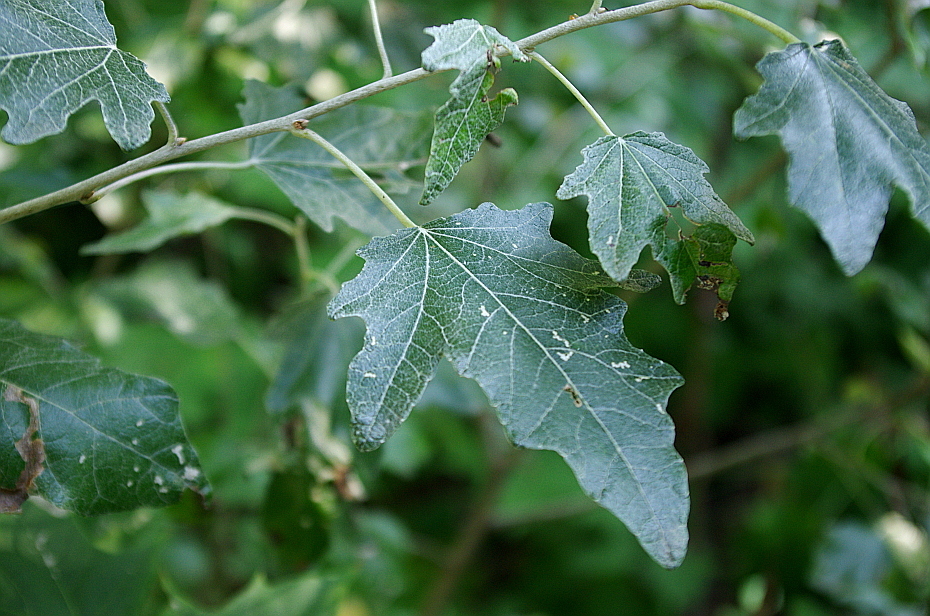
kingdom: Plantae
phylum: Tracheophyta
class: Magnoliopsida
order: Malpighiales
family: Salicaceae
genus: Populus
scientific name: Populus alba
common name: White poplar
